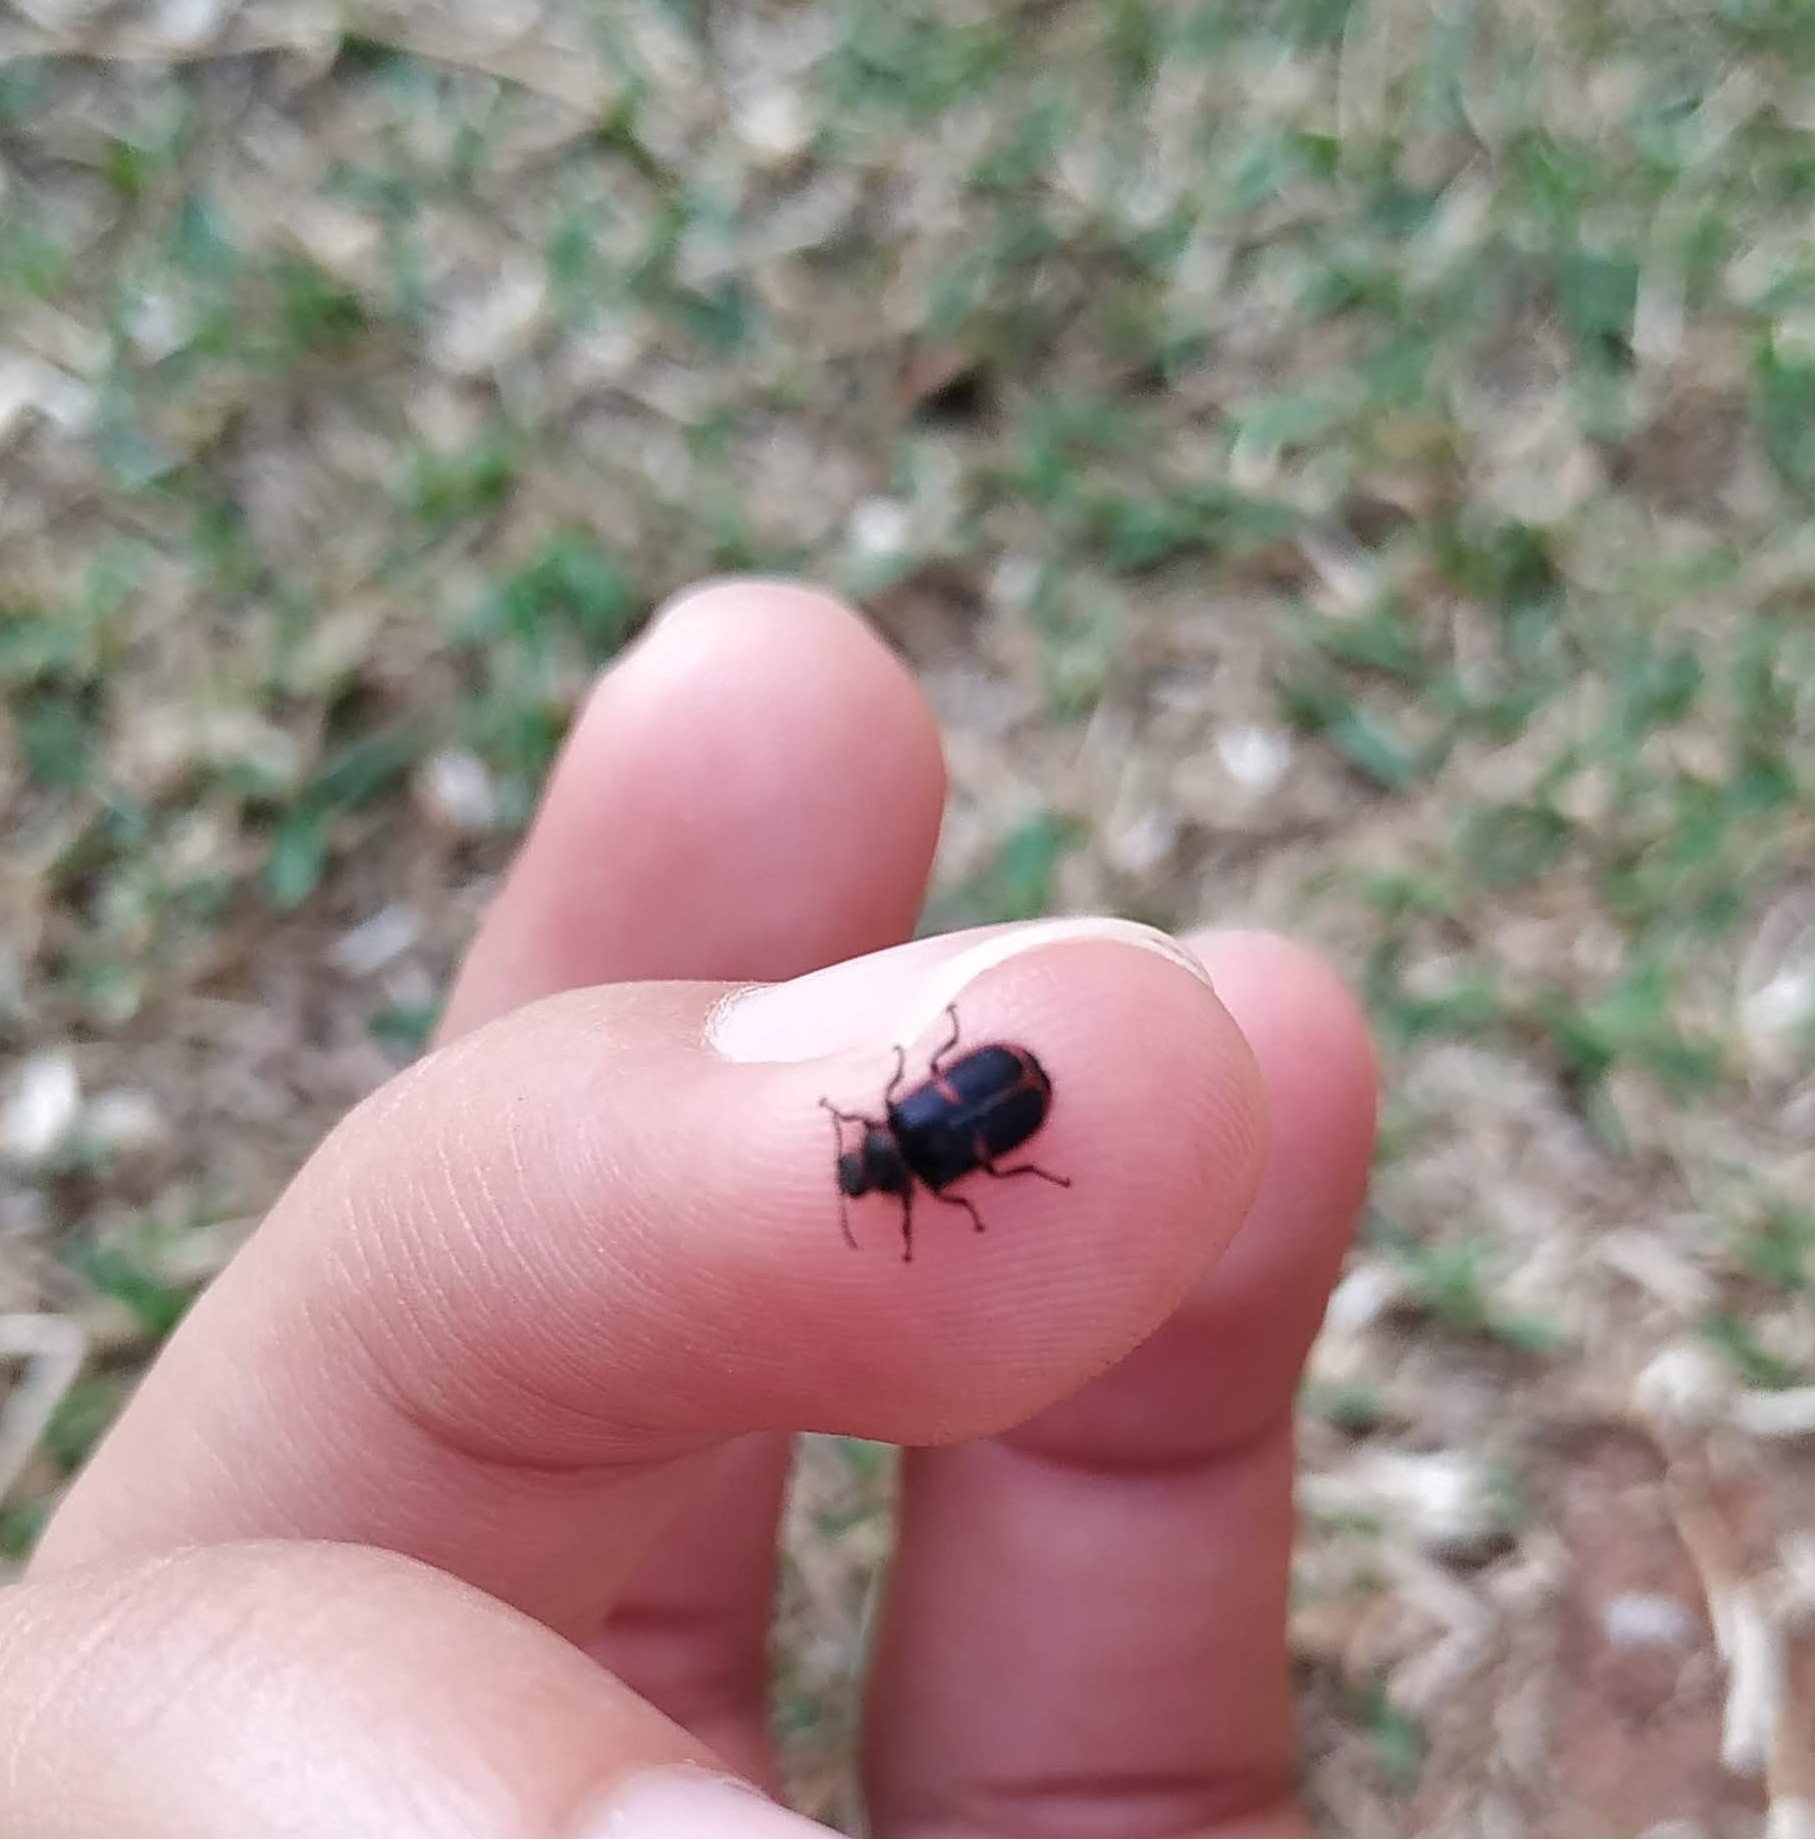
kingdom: Animalia
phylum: Arthropoda
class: Insecta
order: Coleoptera
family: Melyridae
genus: Astylus
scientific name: Astylus
